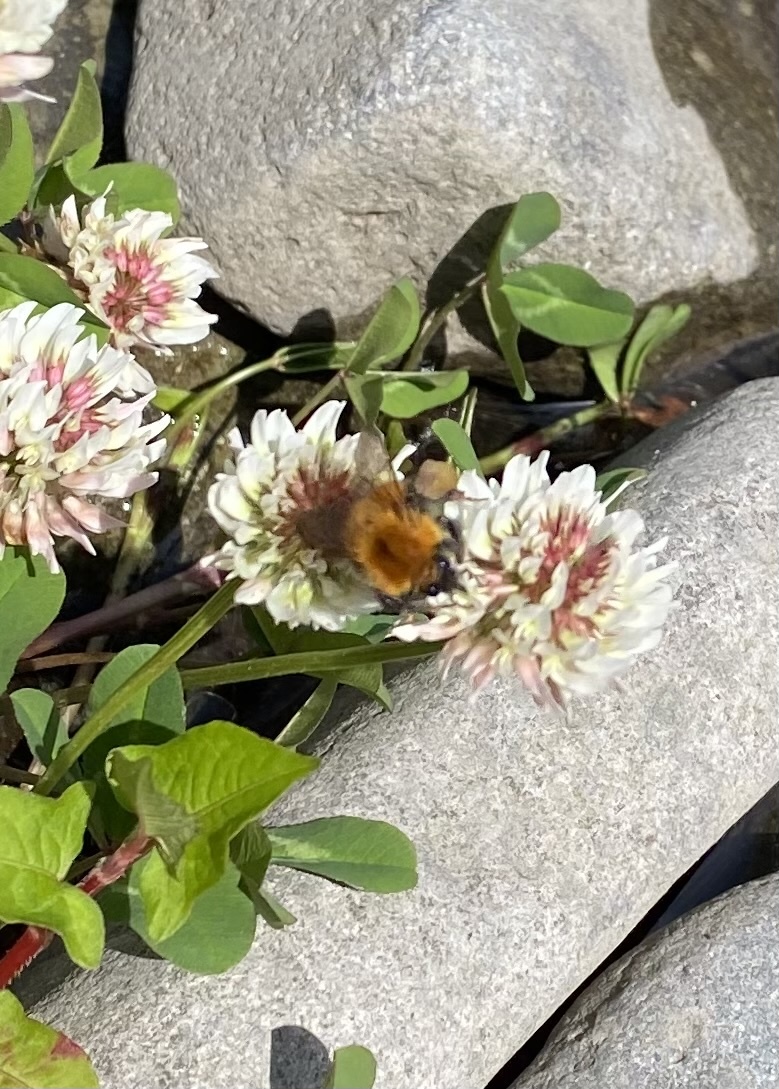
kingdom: Animalia
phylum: Arthropoda
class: Insecta
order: Hymenoptera
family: Apidae
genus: Bombus
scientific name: Bombus hypnorum
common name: New garden bumblebee
